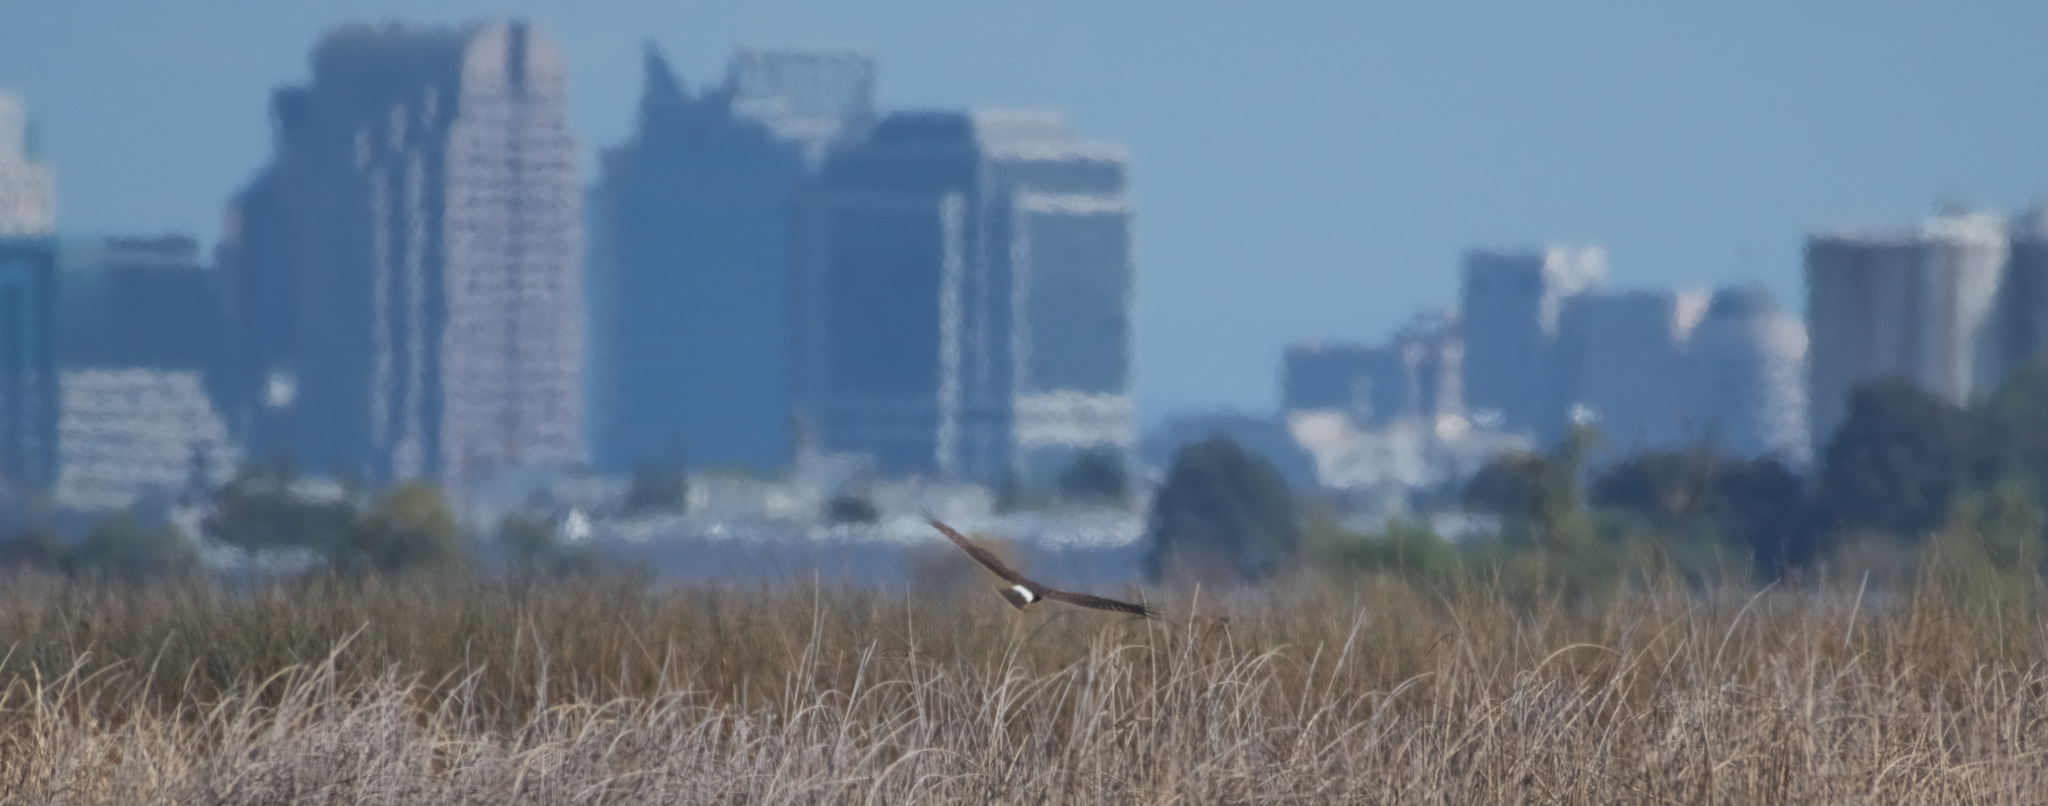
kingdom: Animalia
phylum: Chordata
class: Aves
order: Accipitriformes
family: Accipitridae
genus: Circus
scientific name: Circus cyaneus
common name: Hen harrier
